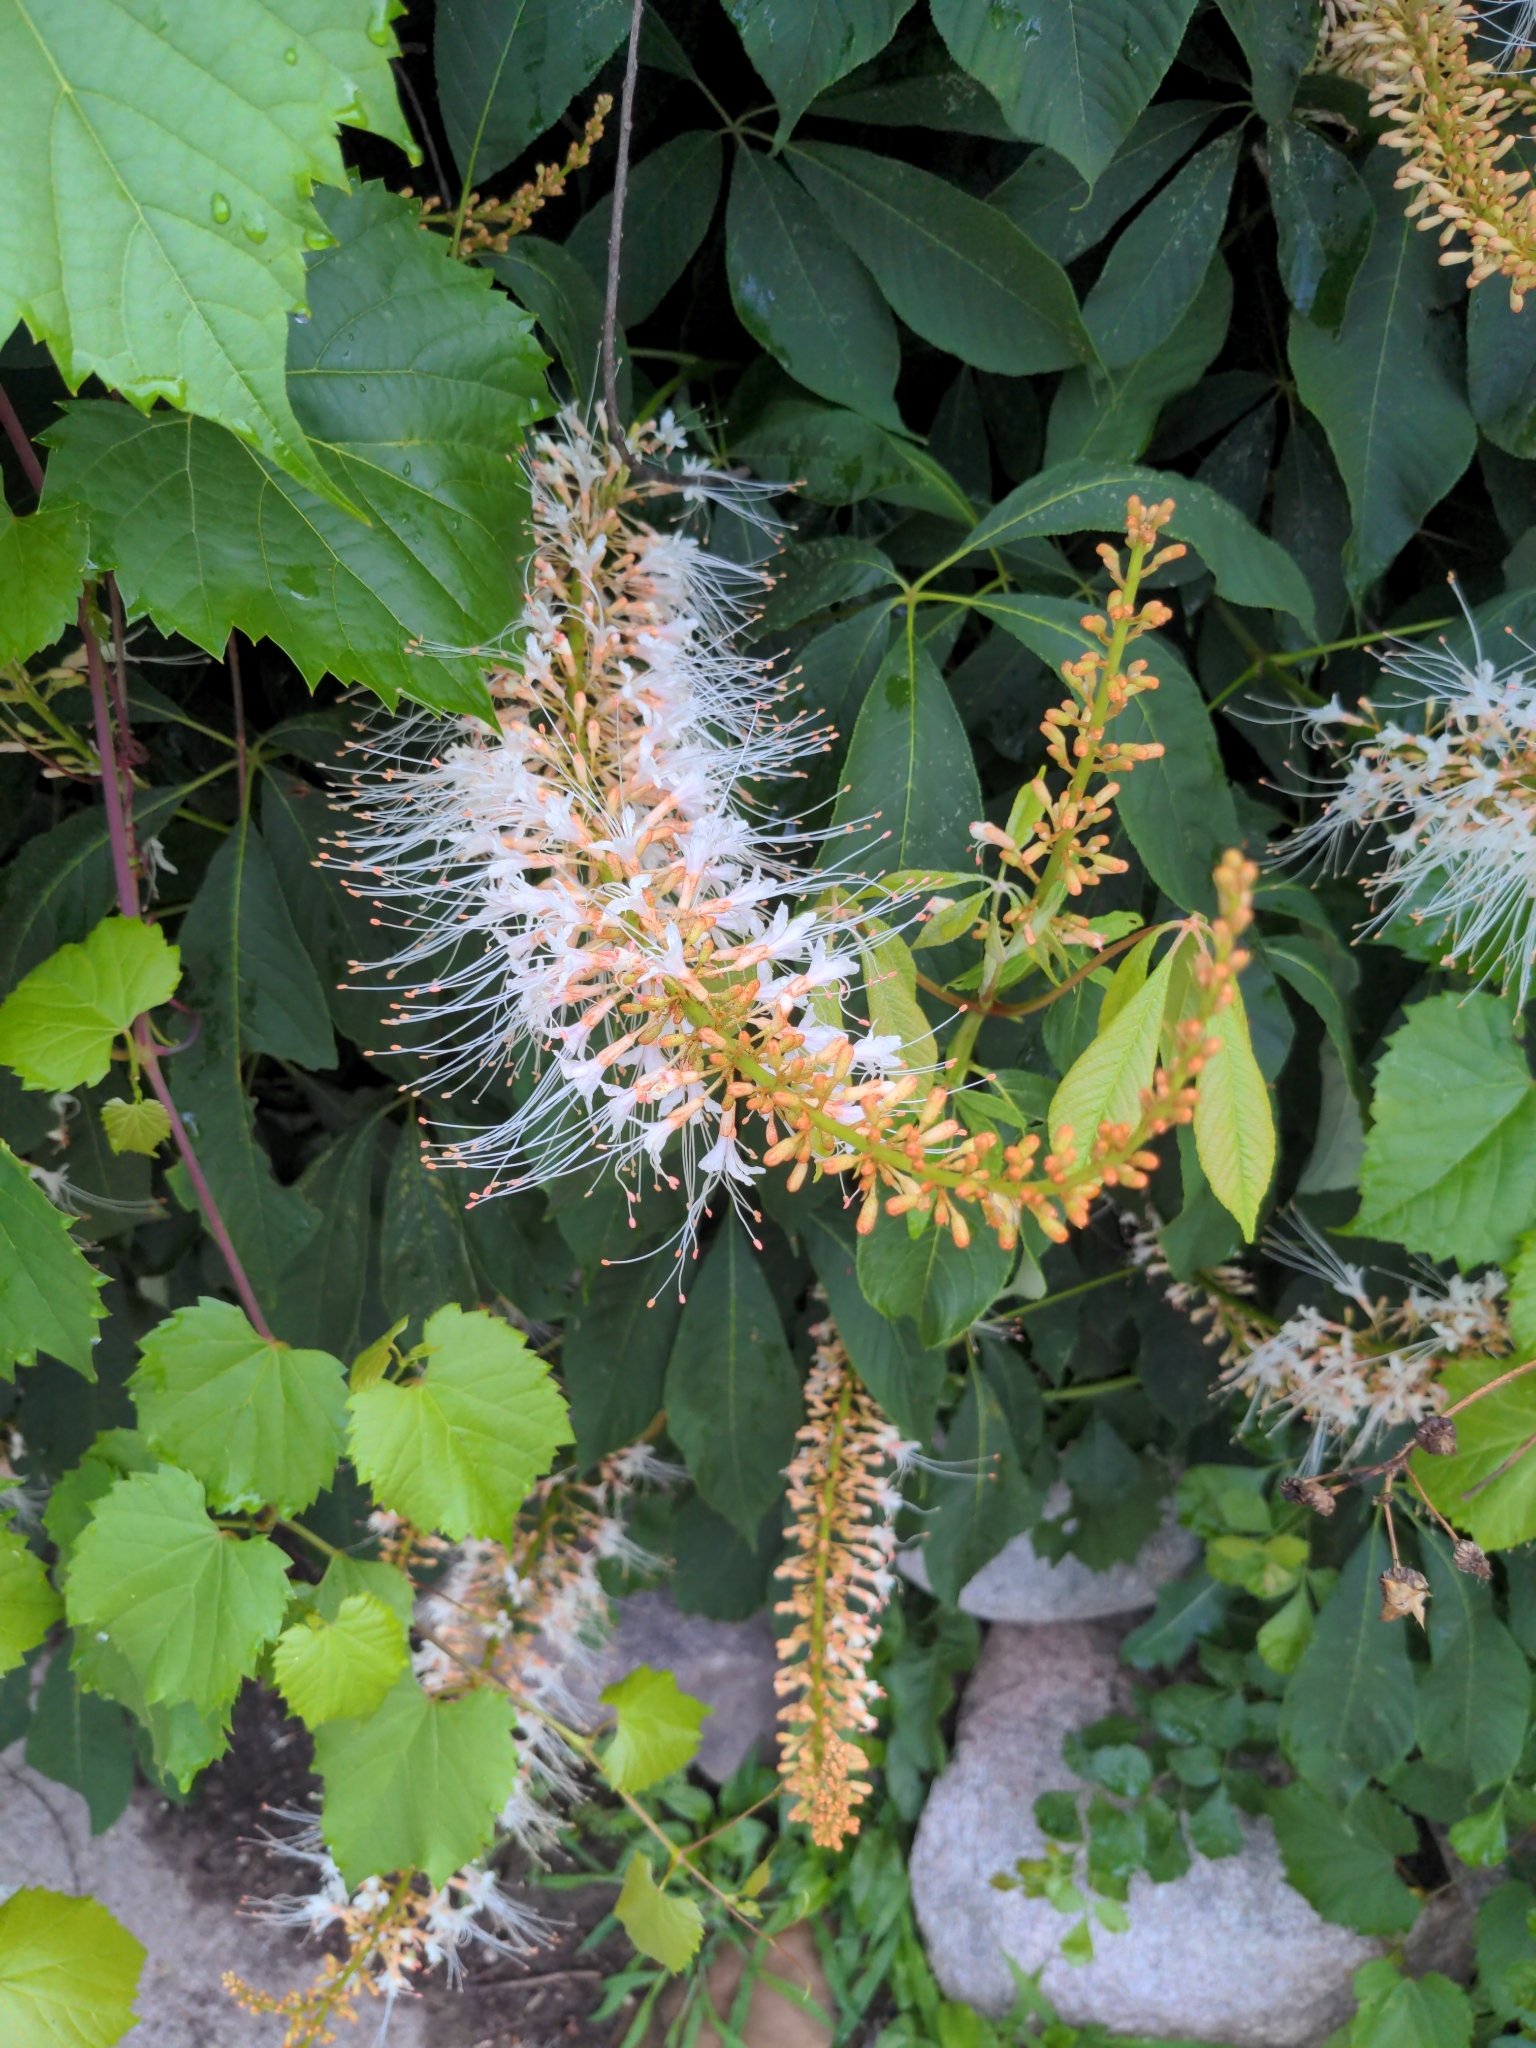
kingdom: Plantae
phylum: Tracheophyta
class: Magnoliopsida
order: Sapindales
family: Sapindaceae
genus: Aesculus
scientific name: Aesculus parviflora
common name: Bottlebrush buckeye
